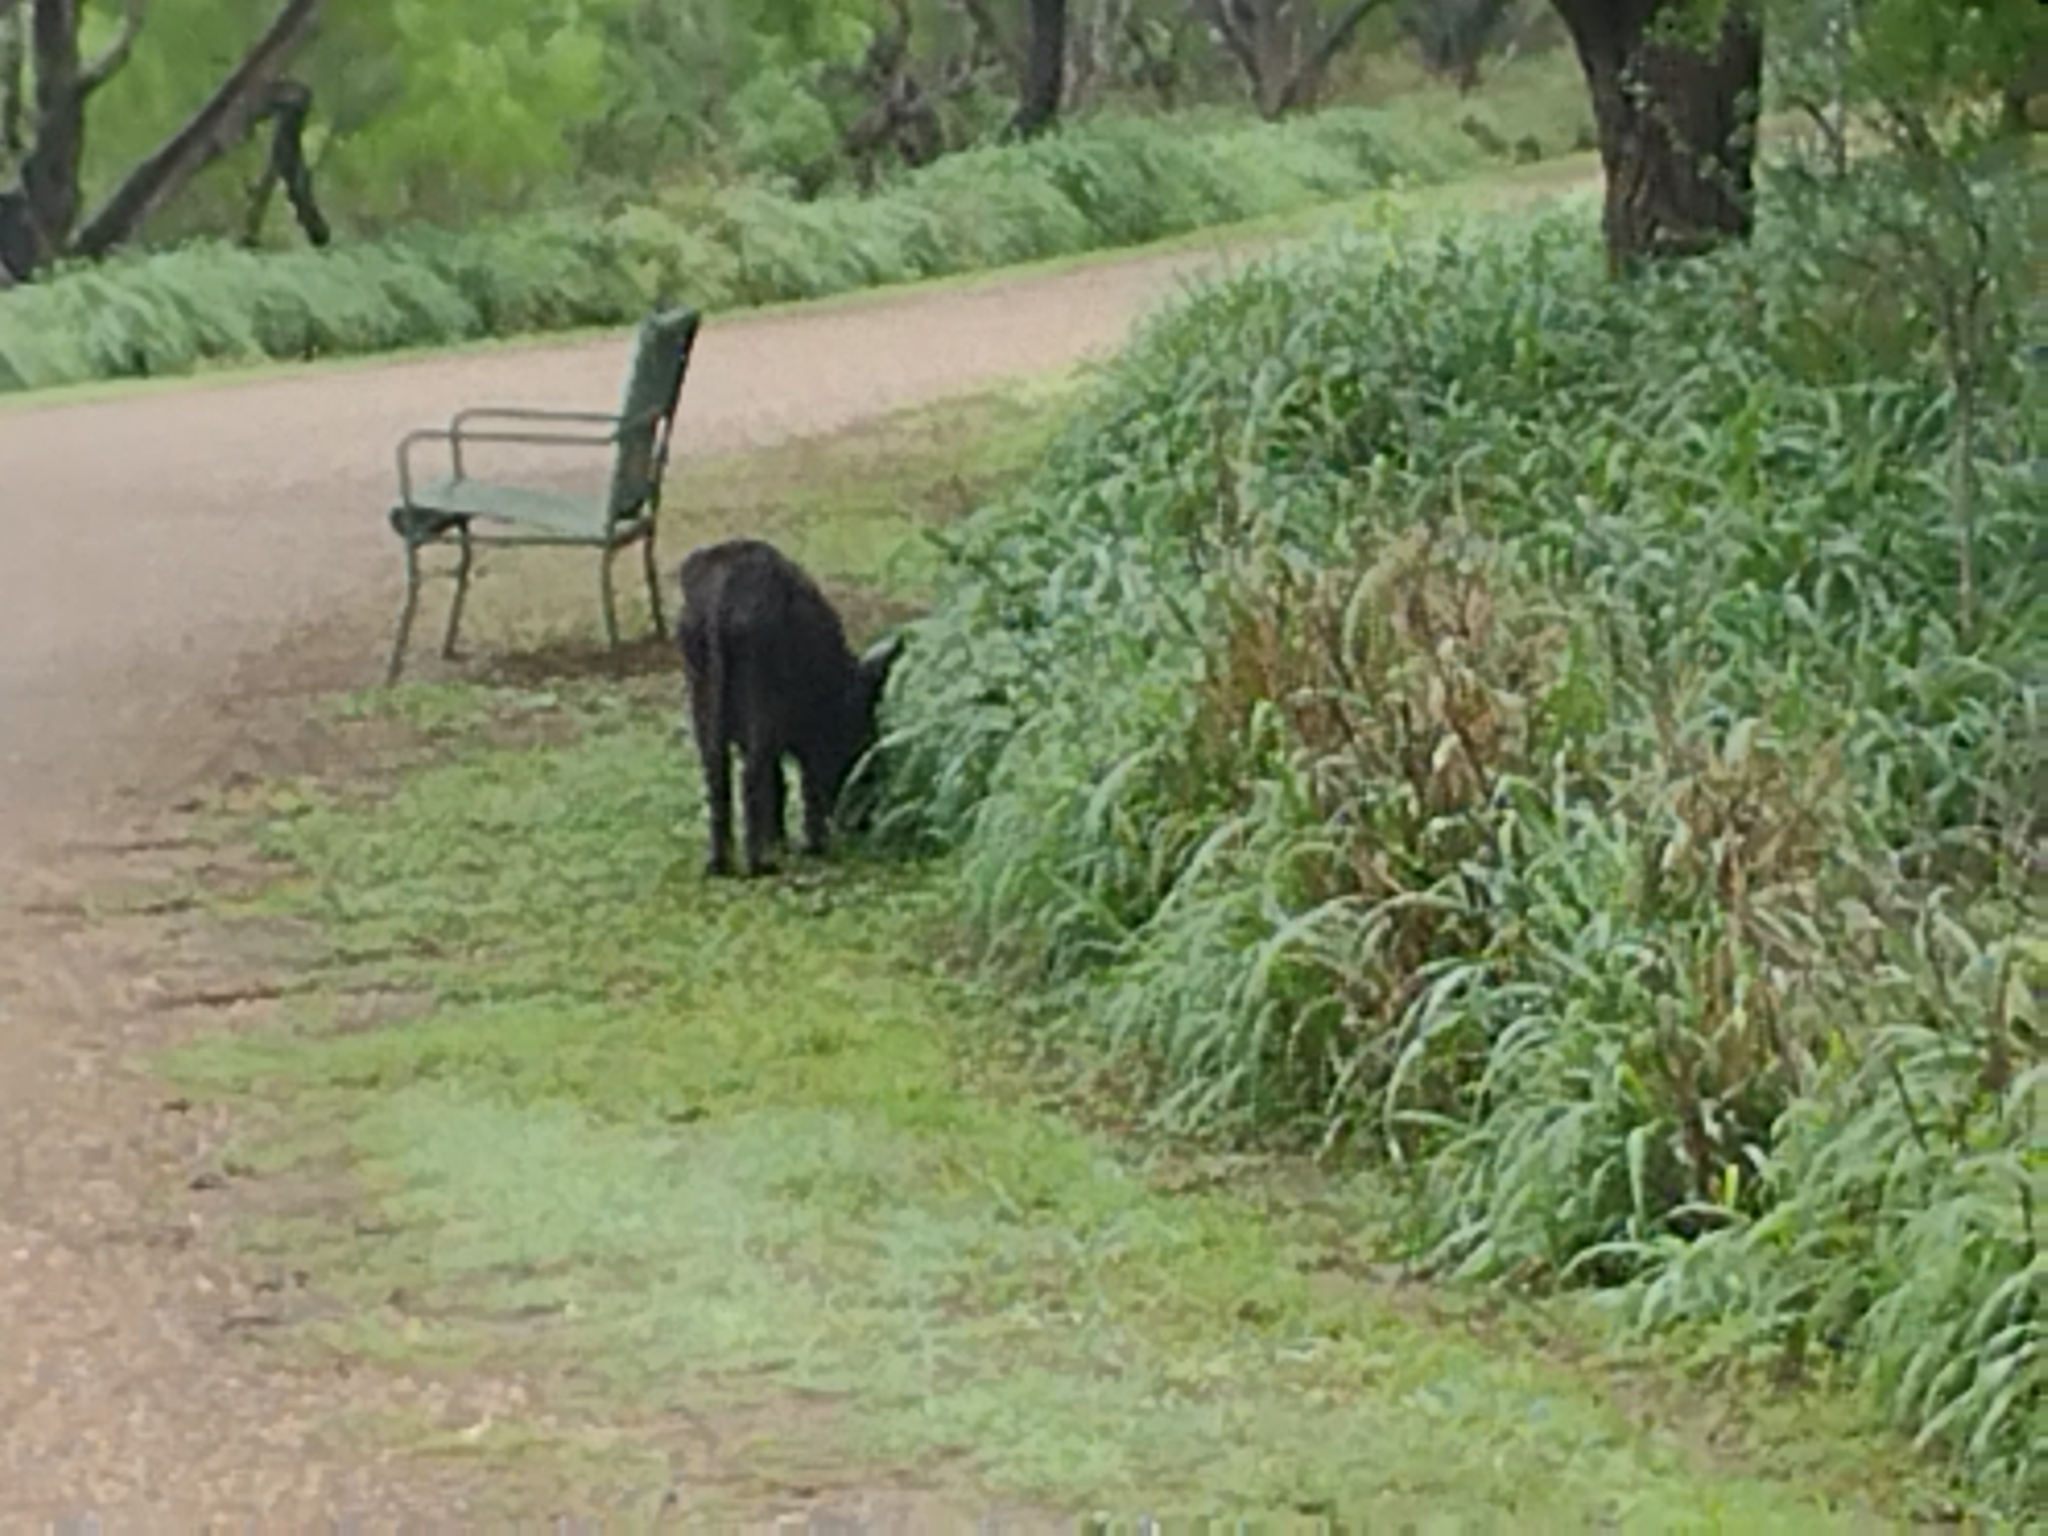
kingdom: Animalia
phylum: Chordata
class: Mammalia
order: Artiodactyla
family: Suidae
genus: Sus
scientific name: Sus scrofa
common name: Wild boar
